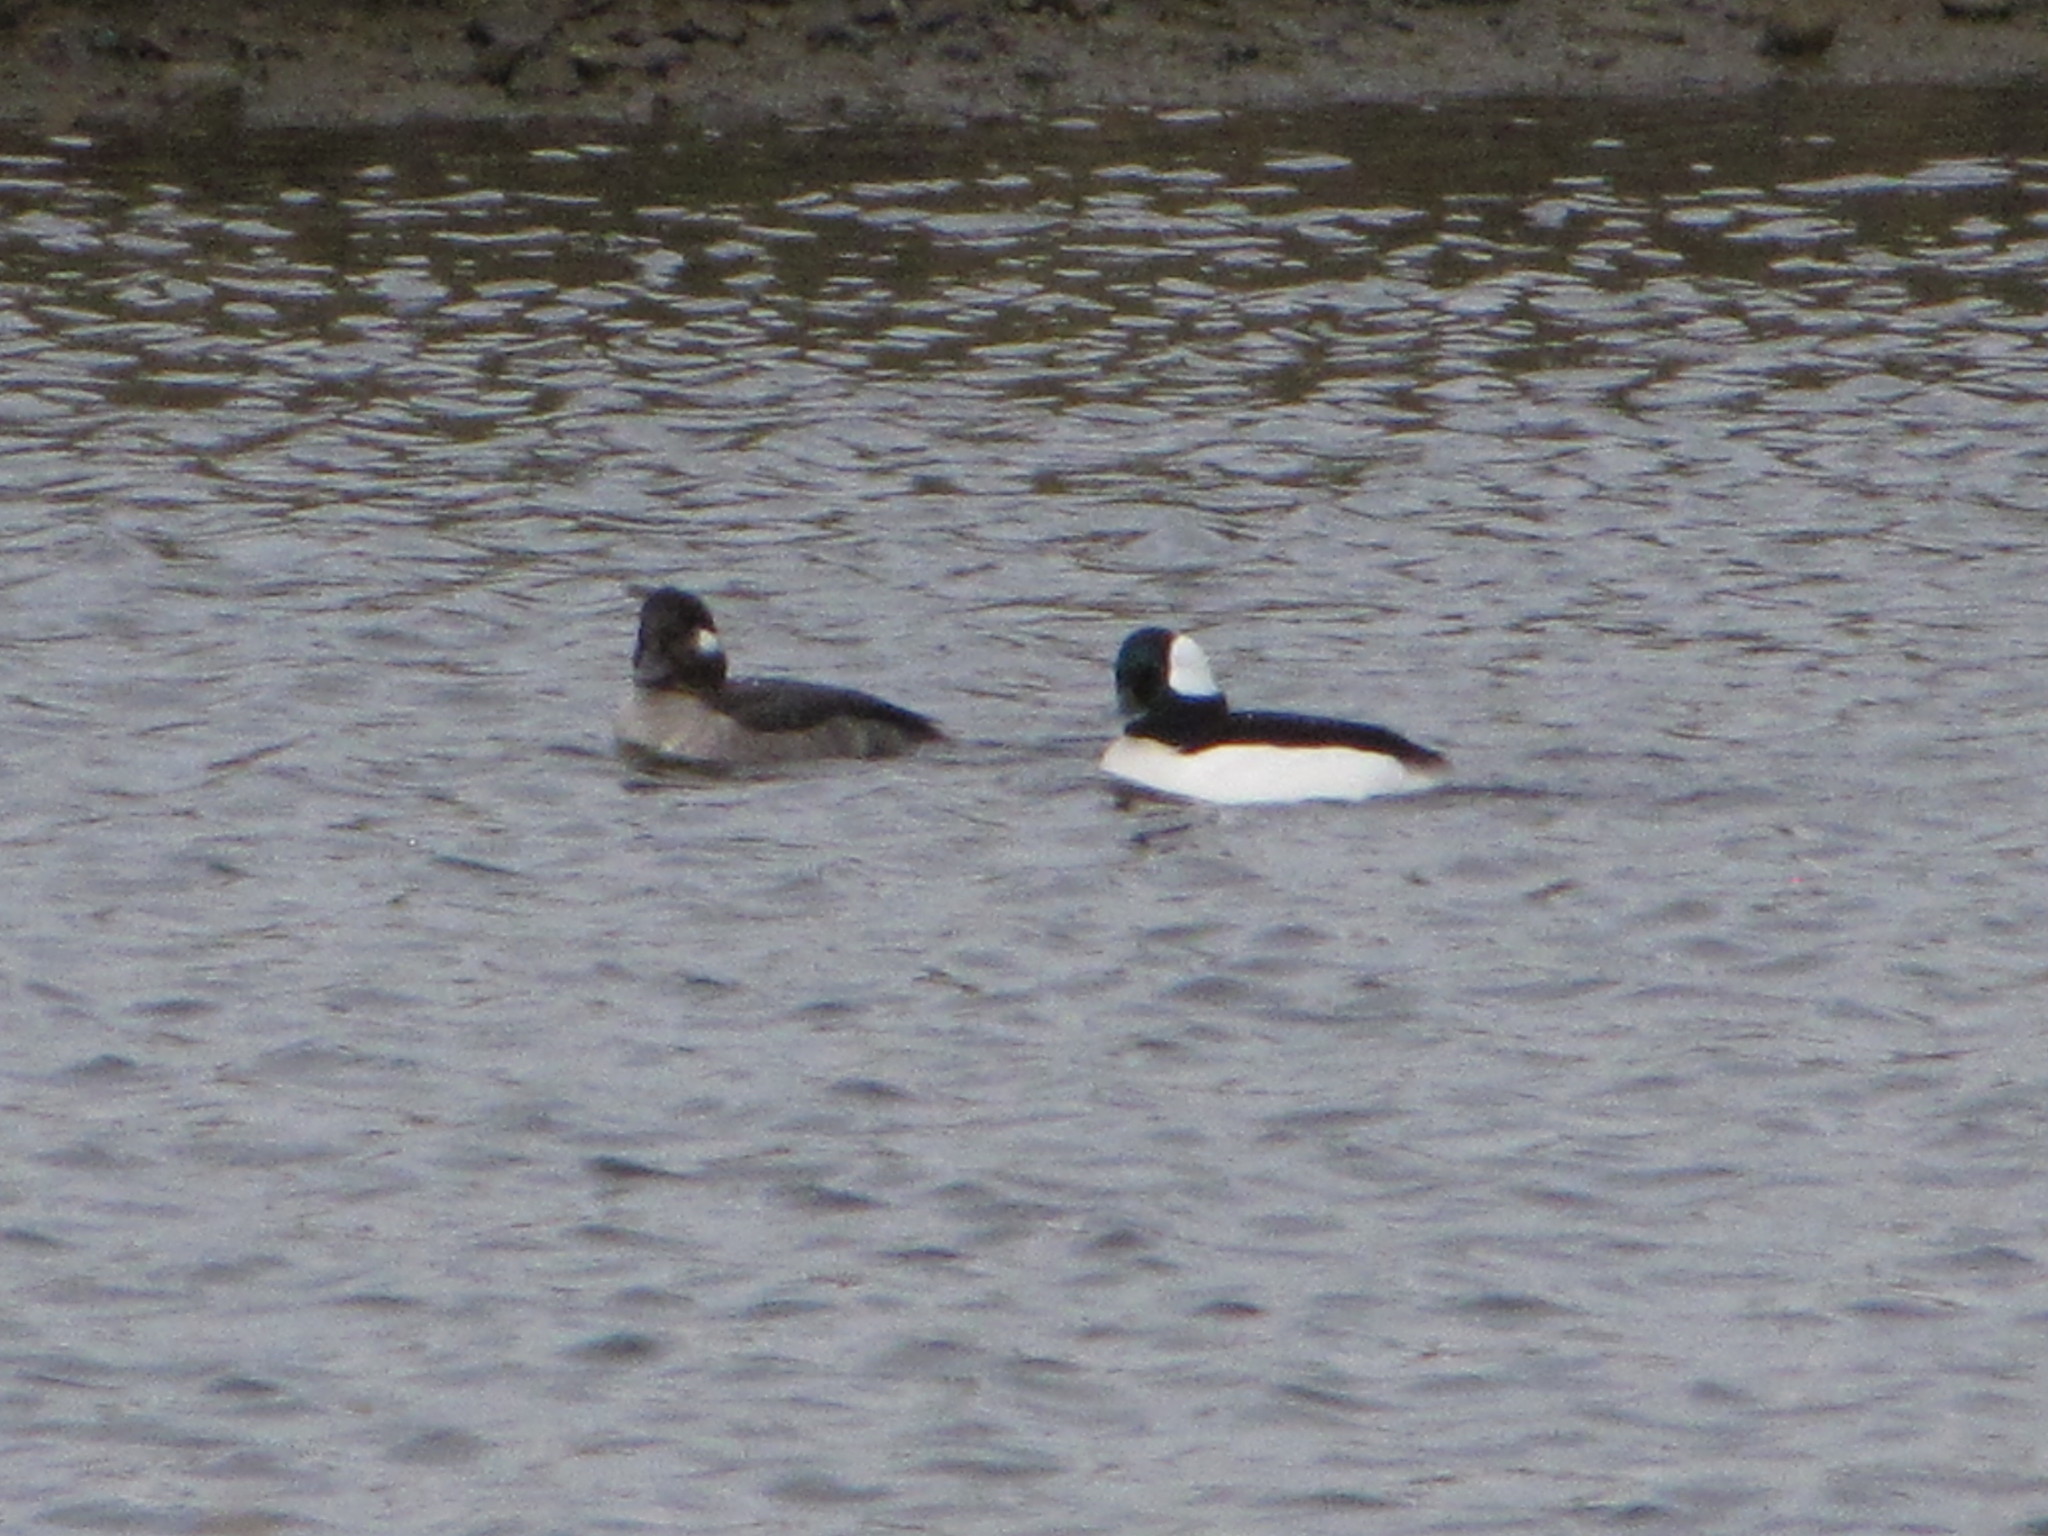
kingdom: Animalia
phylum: Chordata
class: Aves
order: Anseriformes
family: Anatidae
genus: Bucephala
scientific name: Bucephala albeola
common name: Bufflehead
